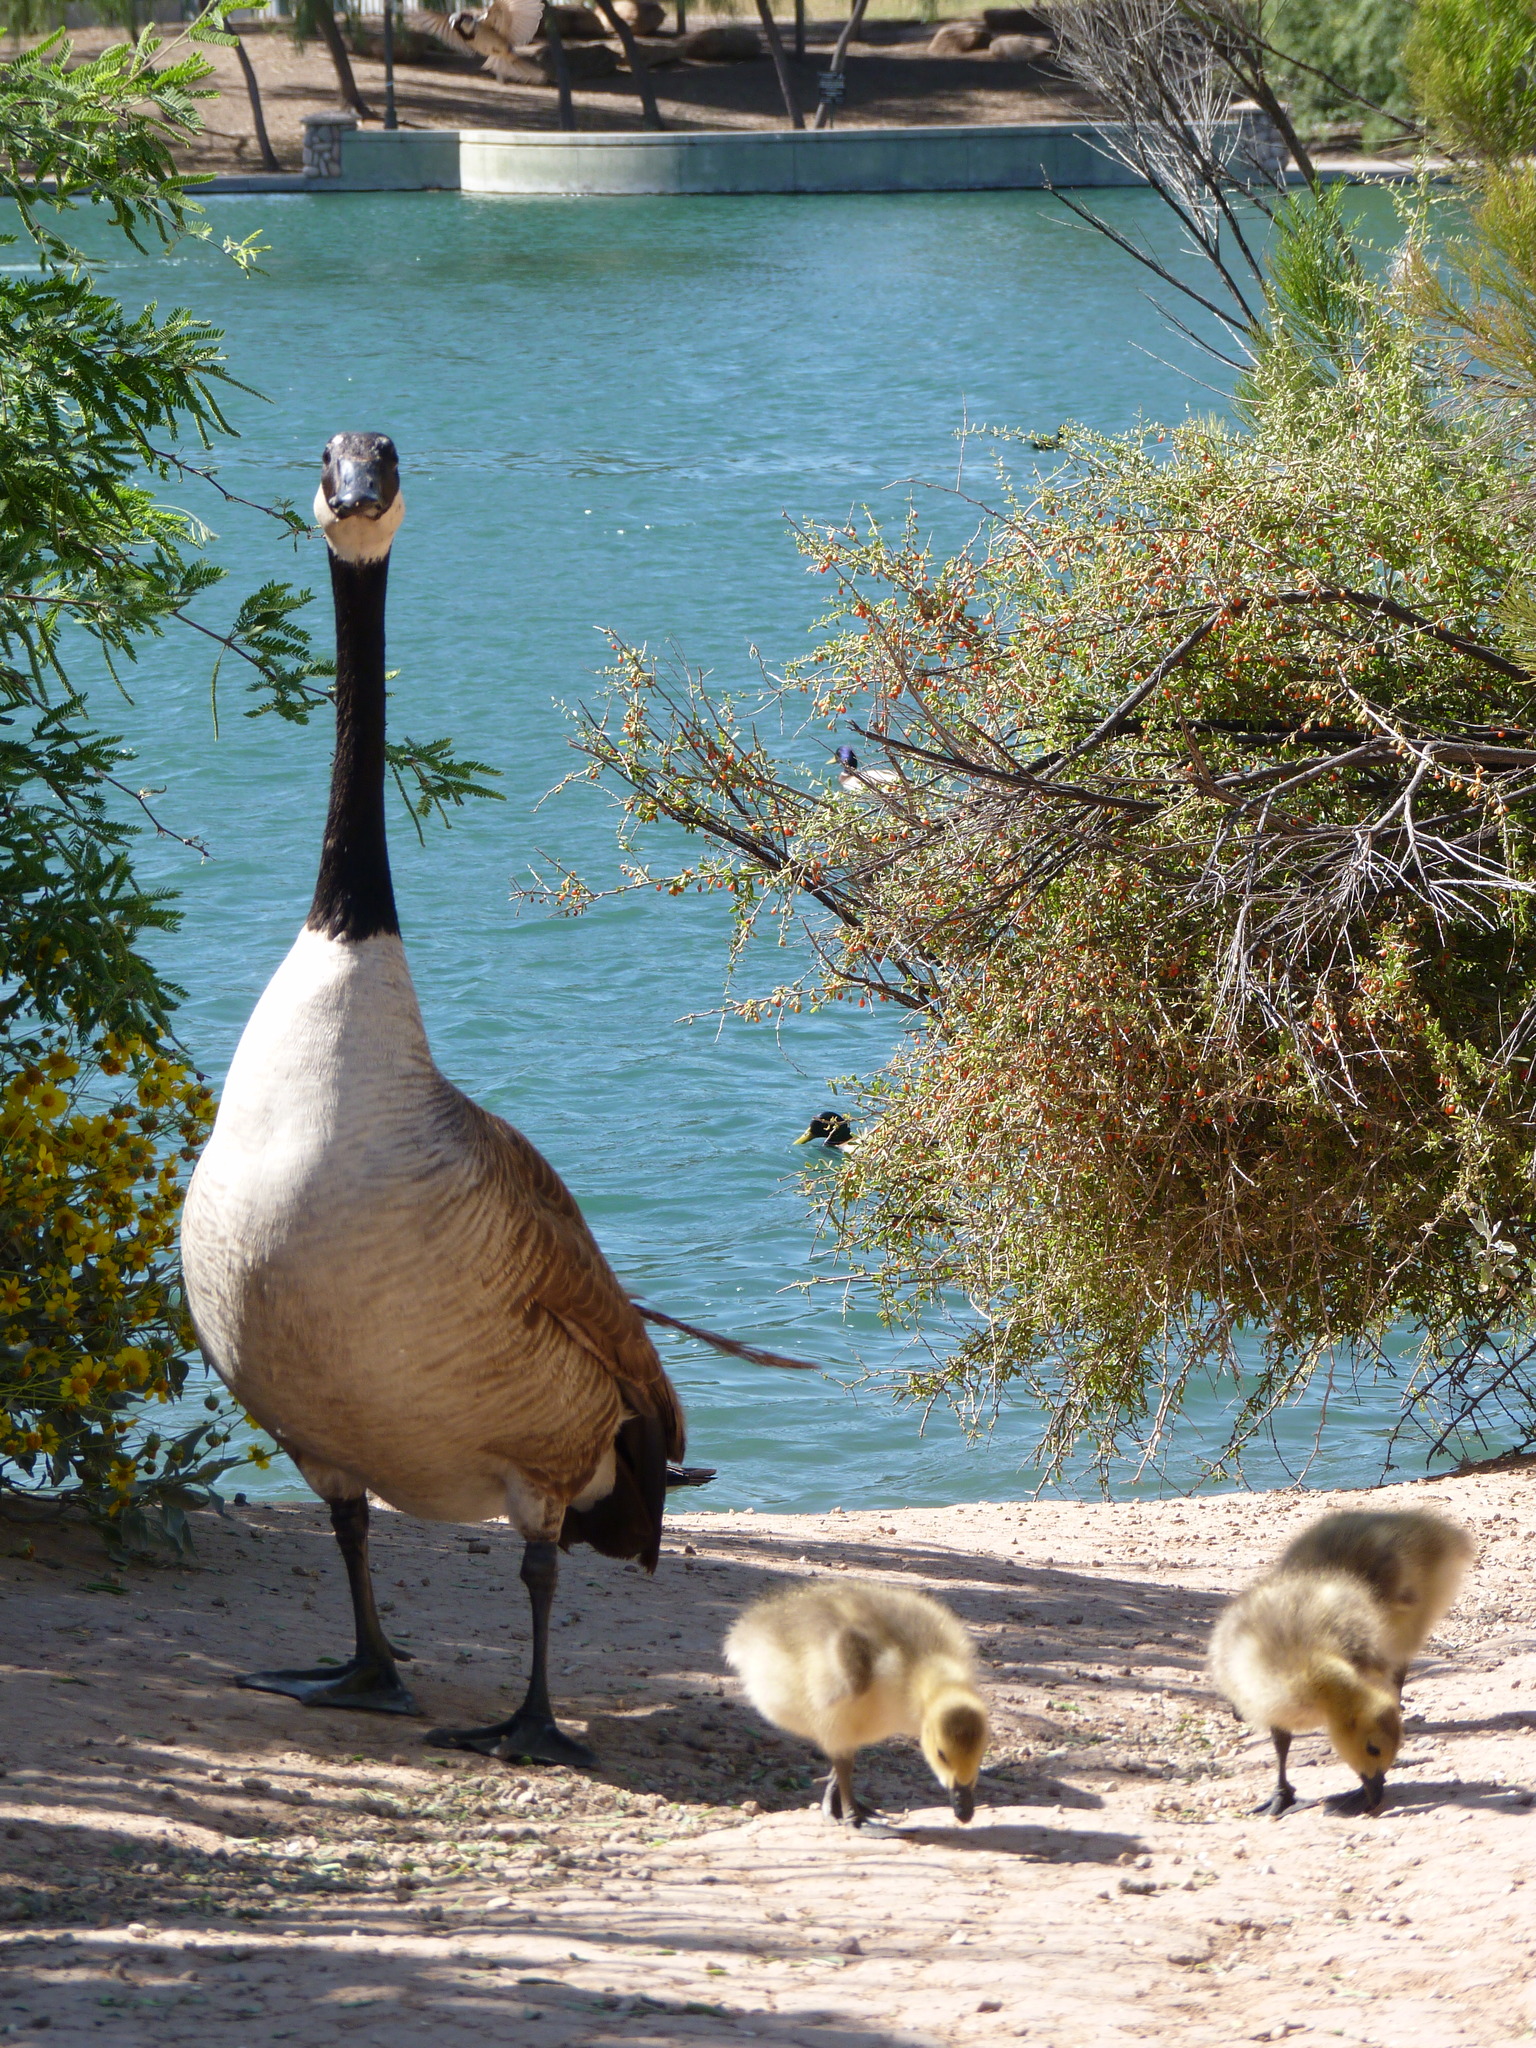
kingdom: Animalia
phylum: Chordata
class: Aves
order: Anseriformes
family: Anatidae
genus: Branta
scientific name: Branta canadensis
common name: Canada goose
